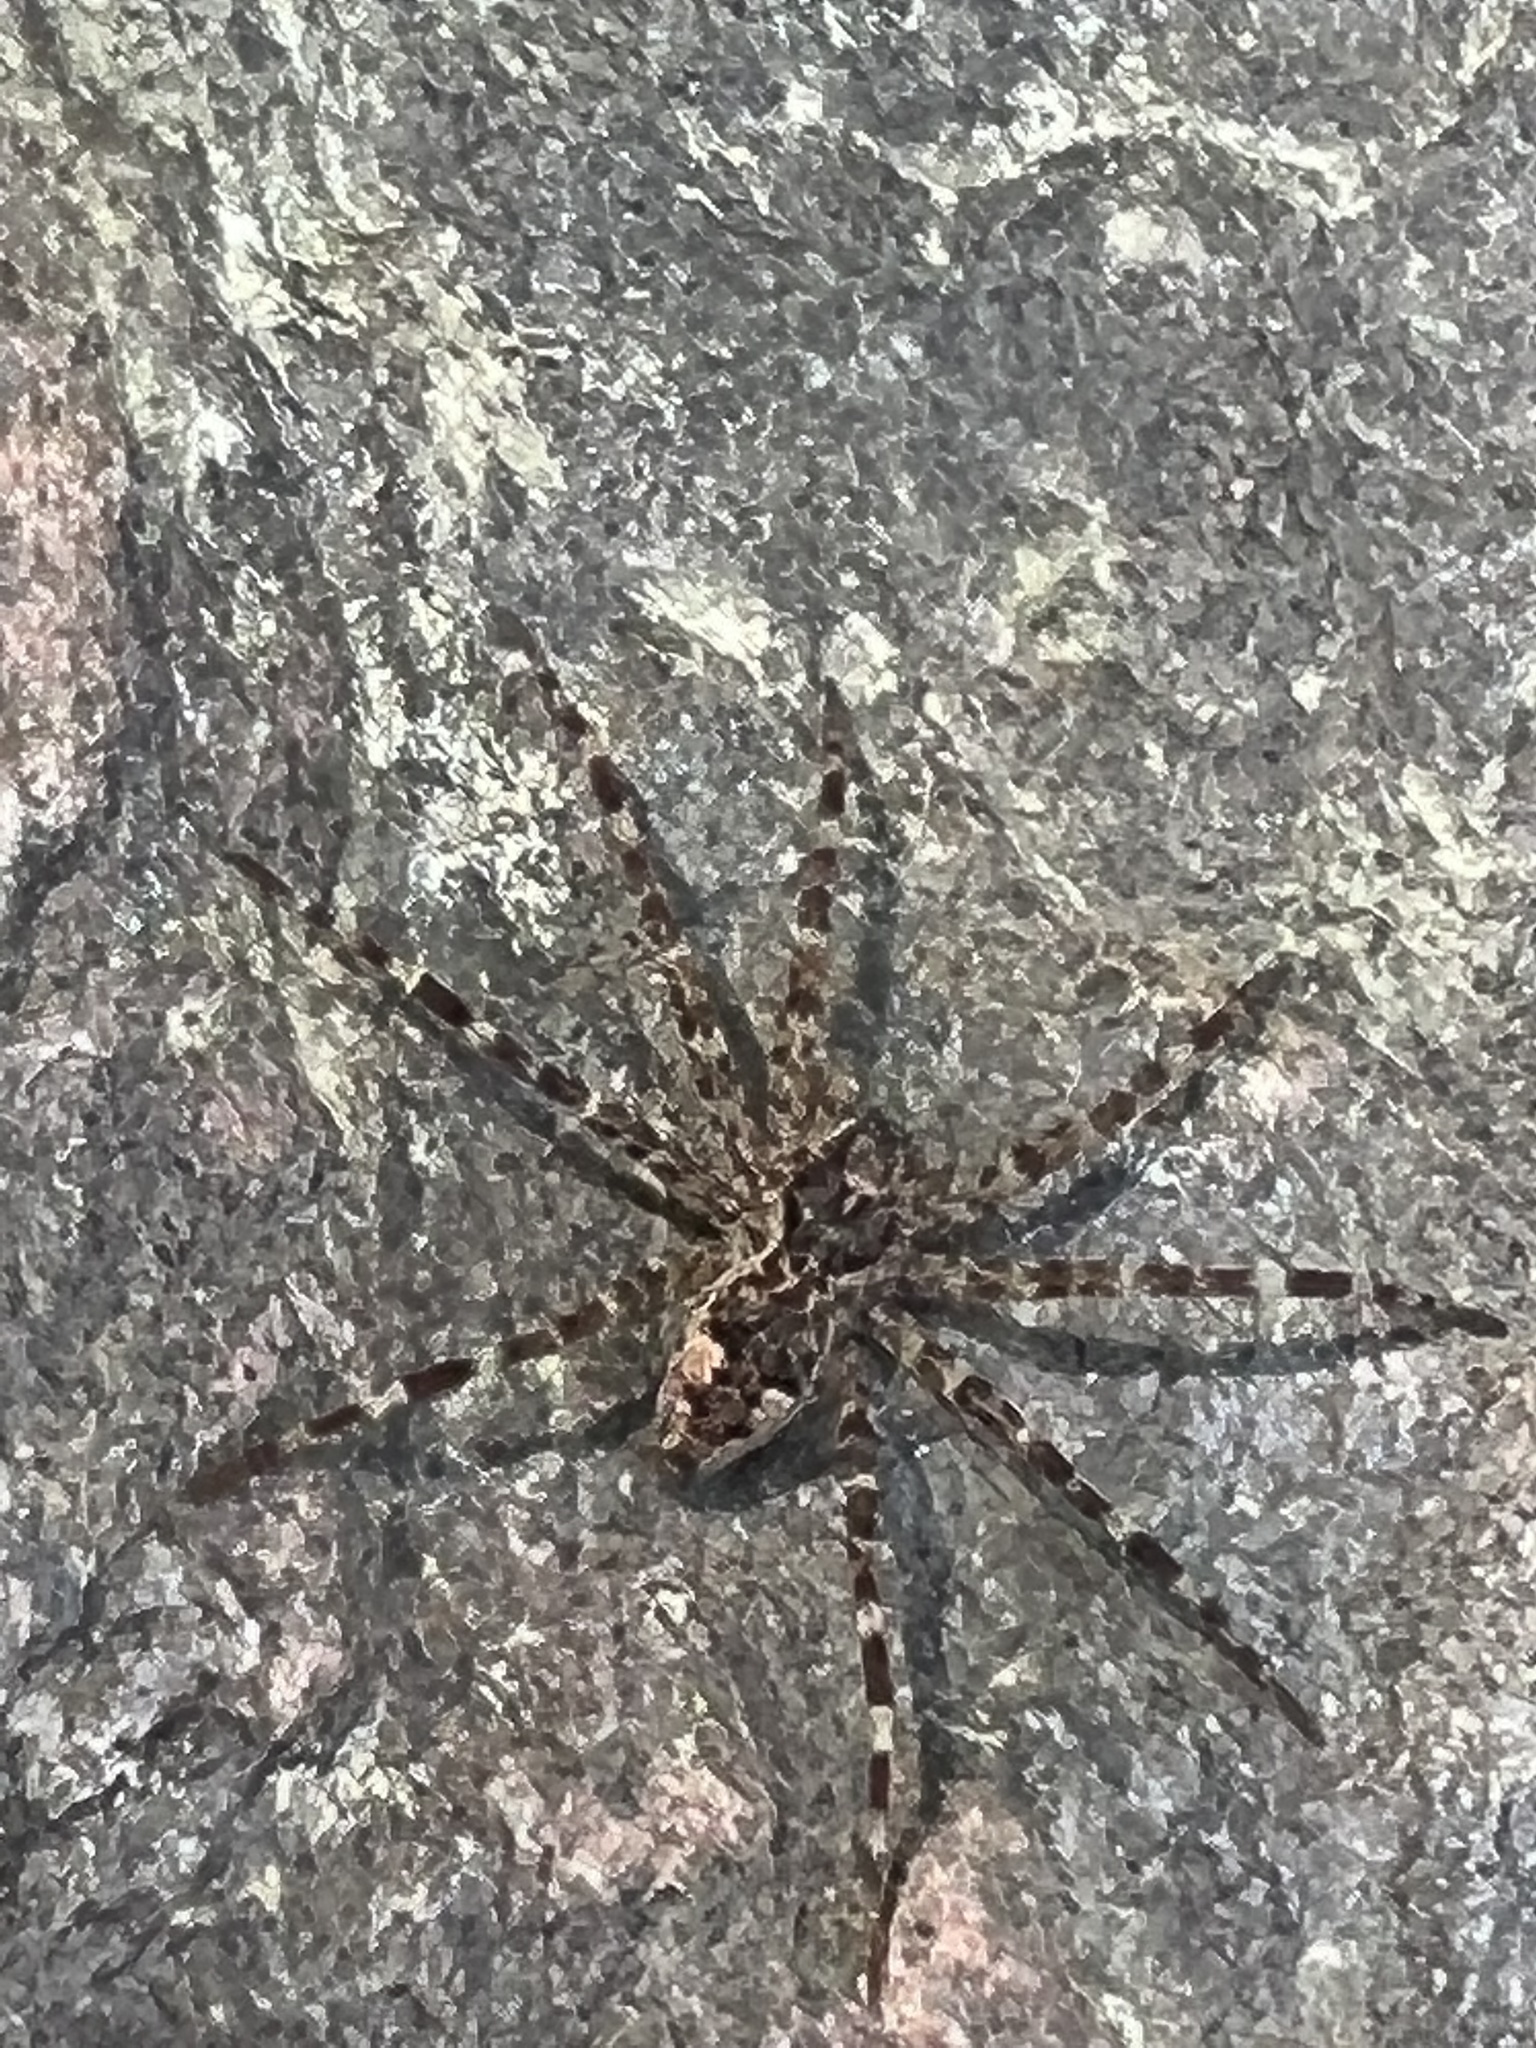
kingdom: Animalia
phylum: Arthropoda
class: Arachnida
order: Araneae
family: Pisauridae
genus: Dolomedes
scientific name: Dolomedes tenebrosus
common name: Dark fishing spider
